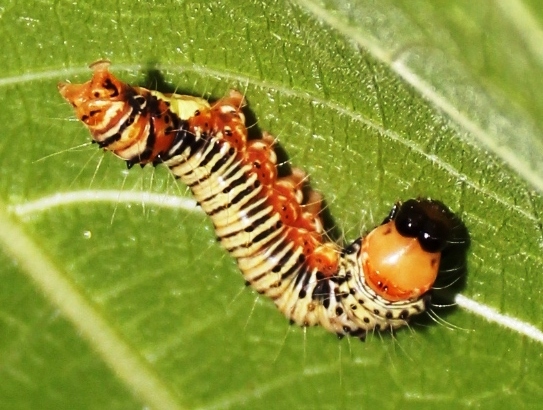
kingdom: Animalia
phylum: Arthropoda
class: Insecta
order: Lepidoptera
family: Erebidae
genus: Asota
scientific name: Asota speciosa
